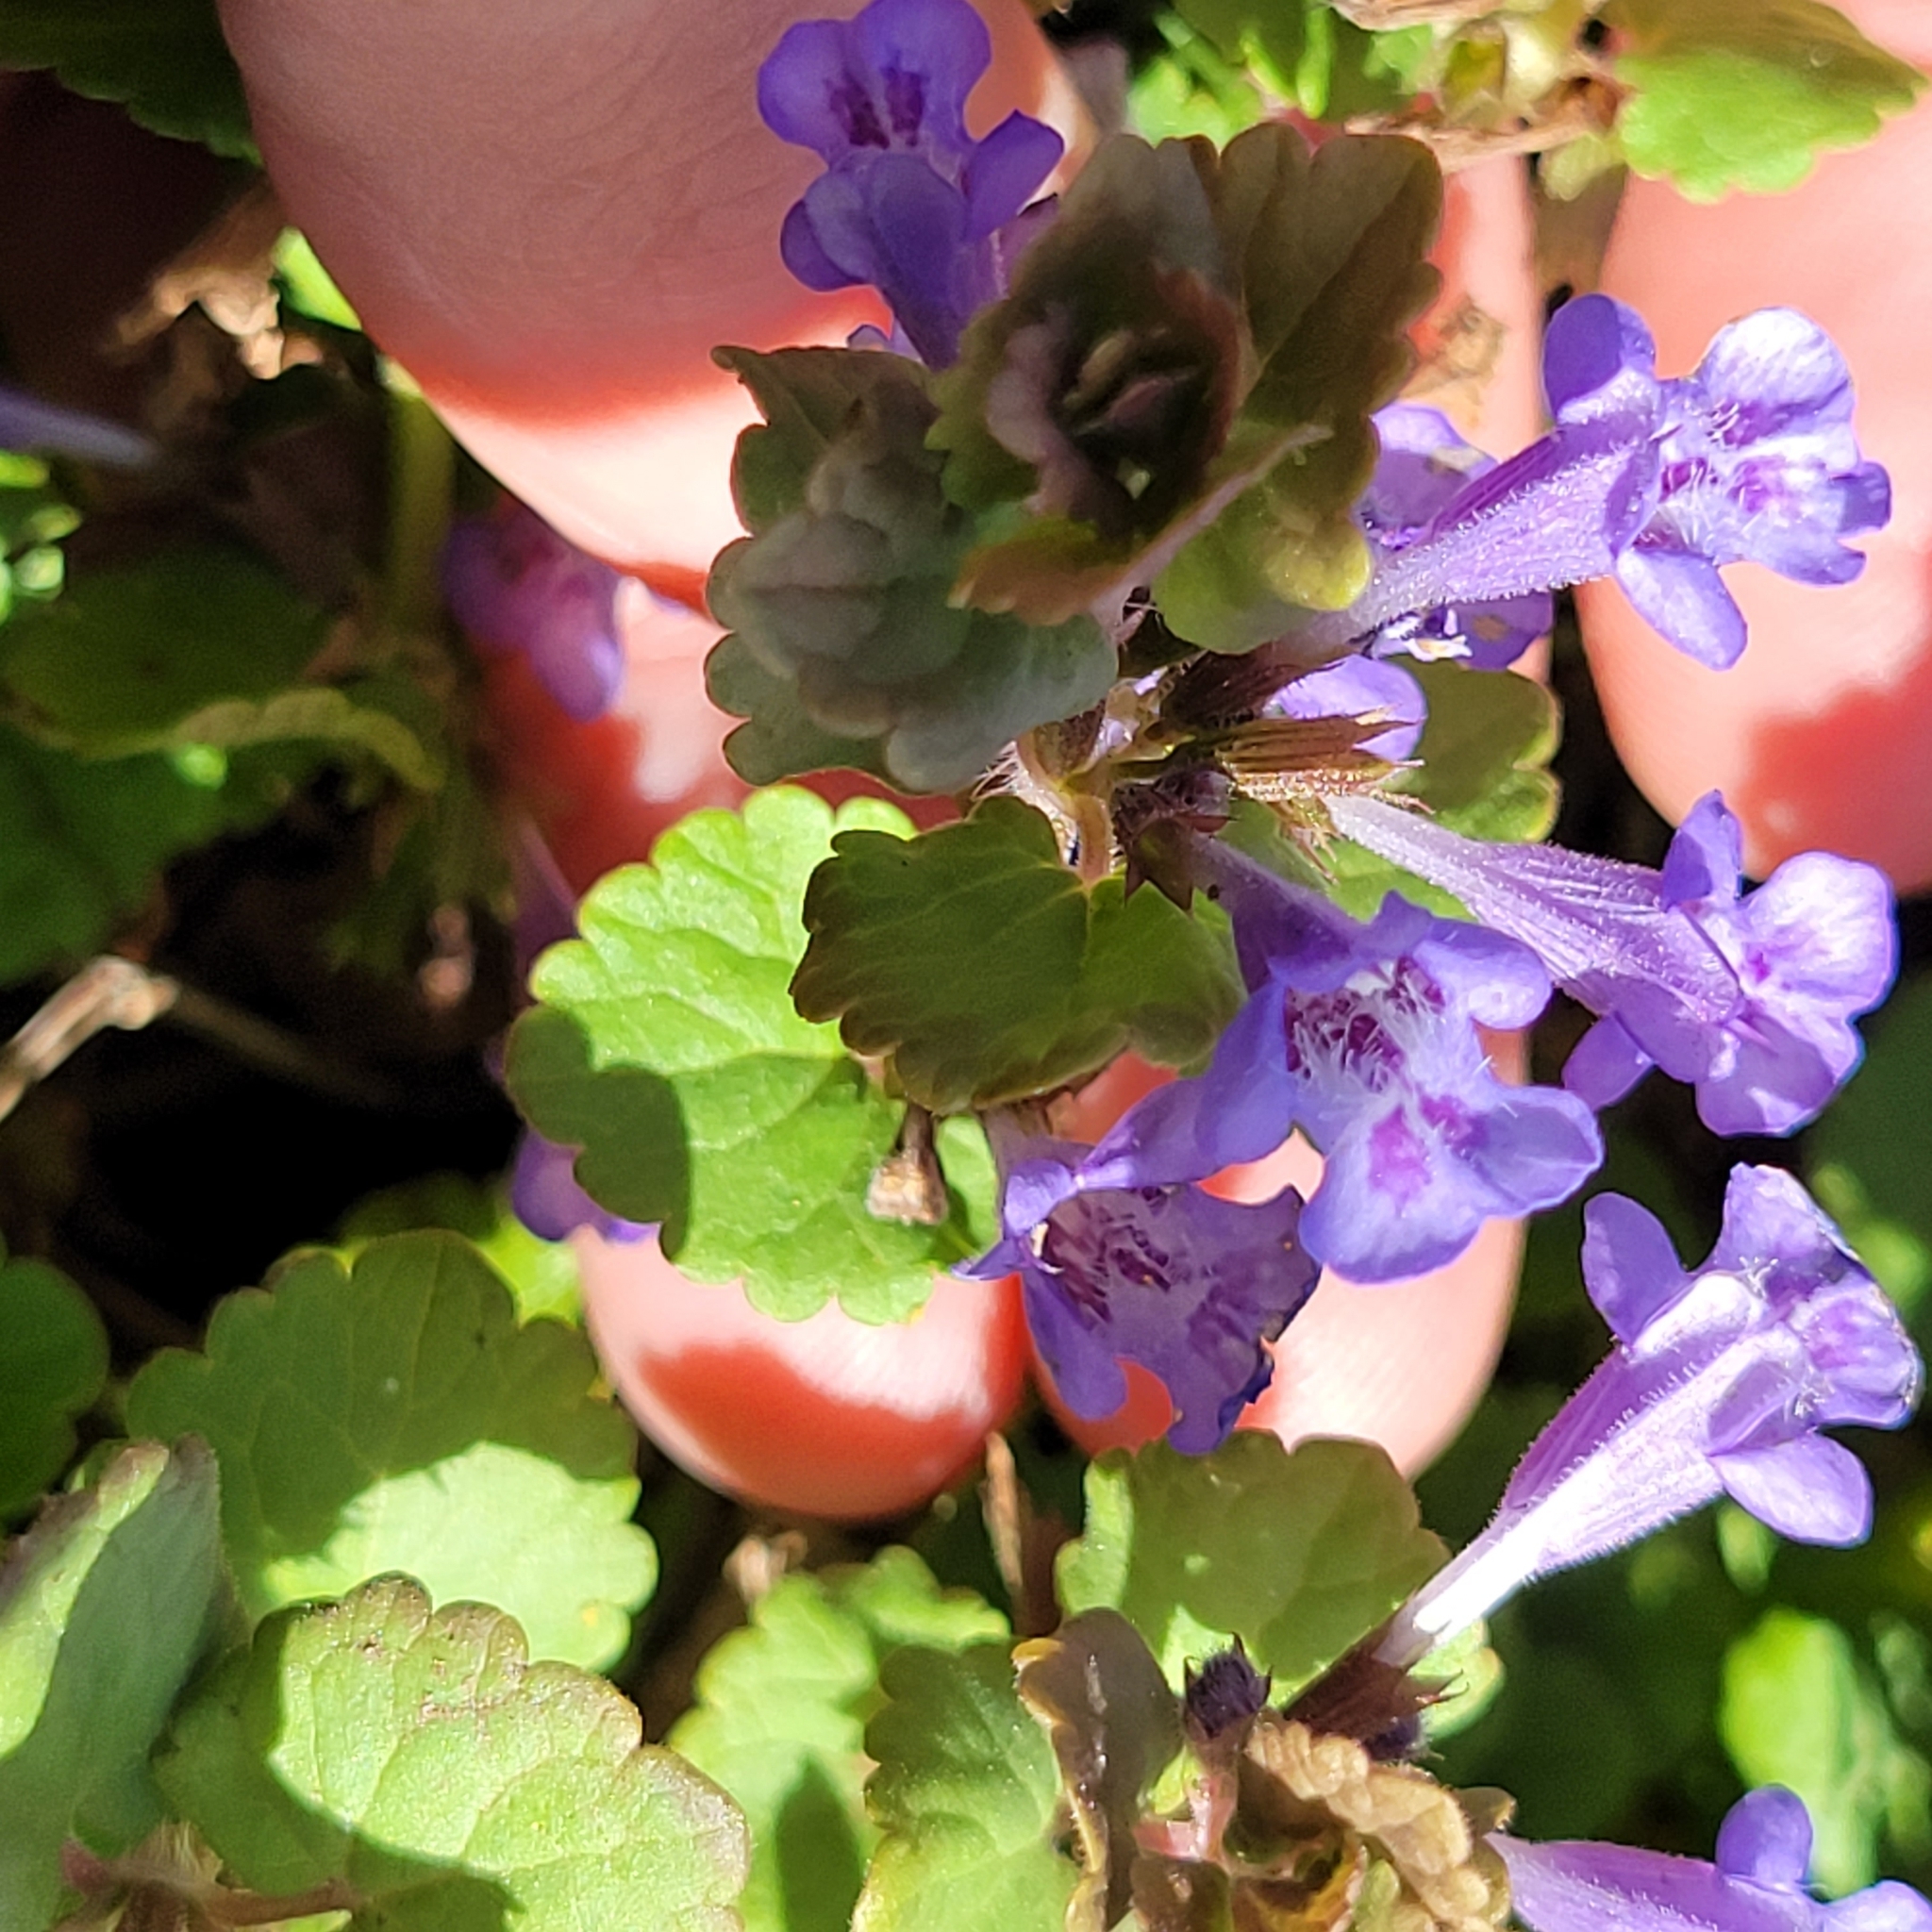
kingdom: Plantae
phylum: Tracheophyta
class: Magnoliopsida
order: Lamiales
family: Lamiaceae
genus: Glechoma
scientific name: Glechoma hederacea
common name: Ground ivy
